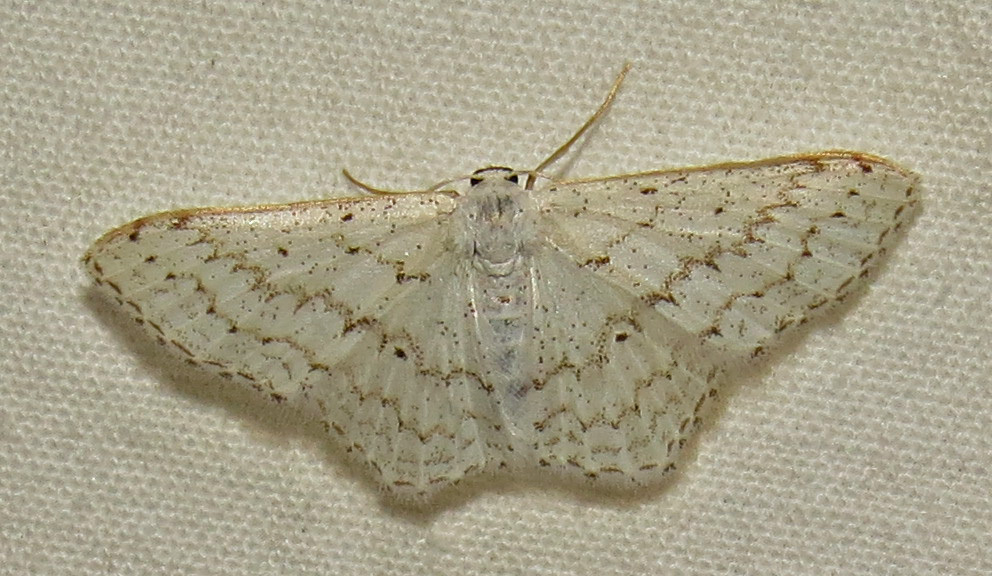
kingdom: Animalia
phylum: Arthropoda
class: Insecta
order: Lepidoptera
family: Geometridae
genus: Idaea
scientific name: Idaea tacturata
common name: Dot-lined wave
